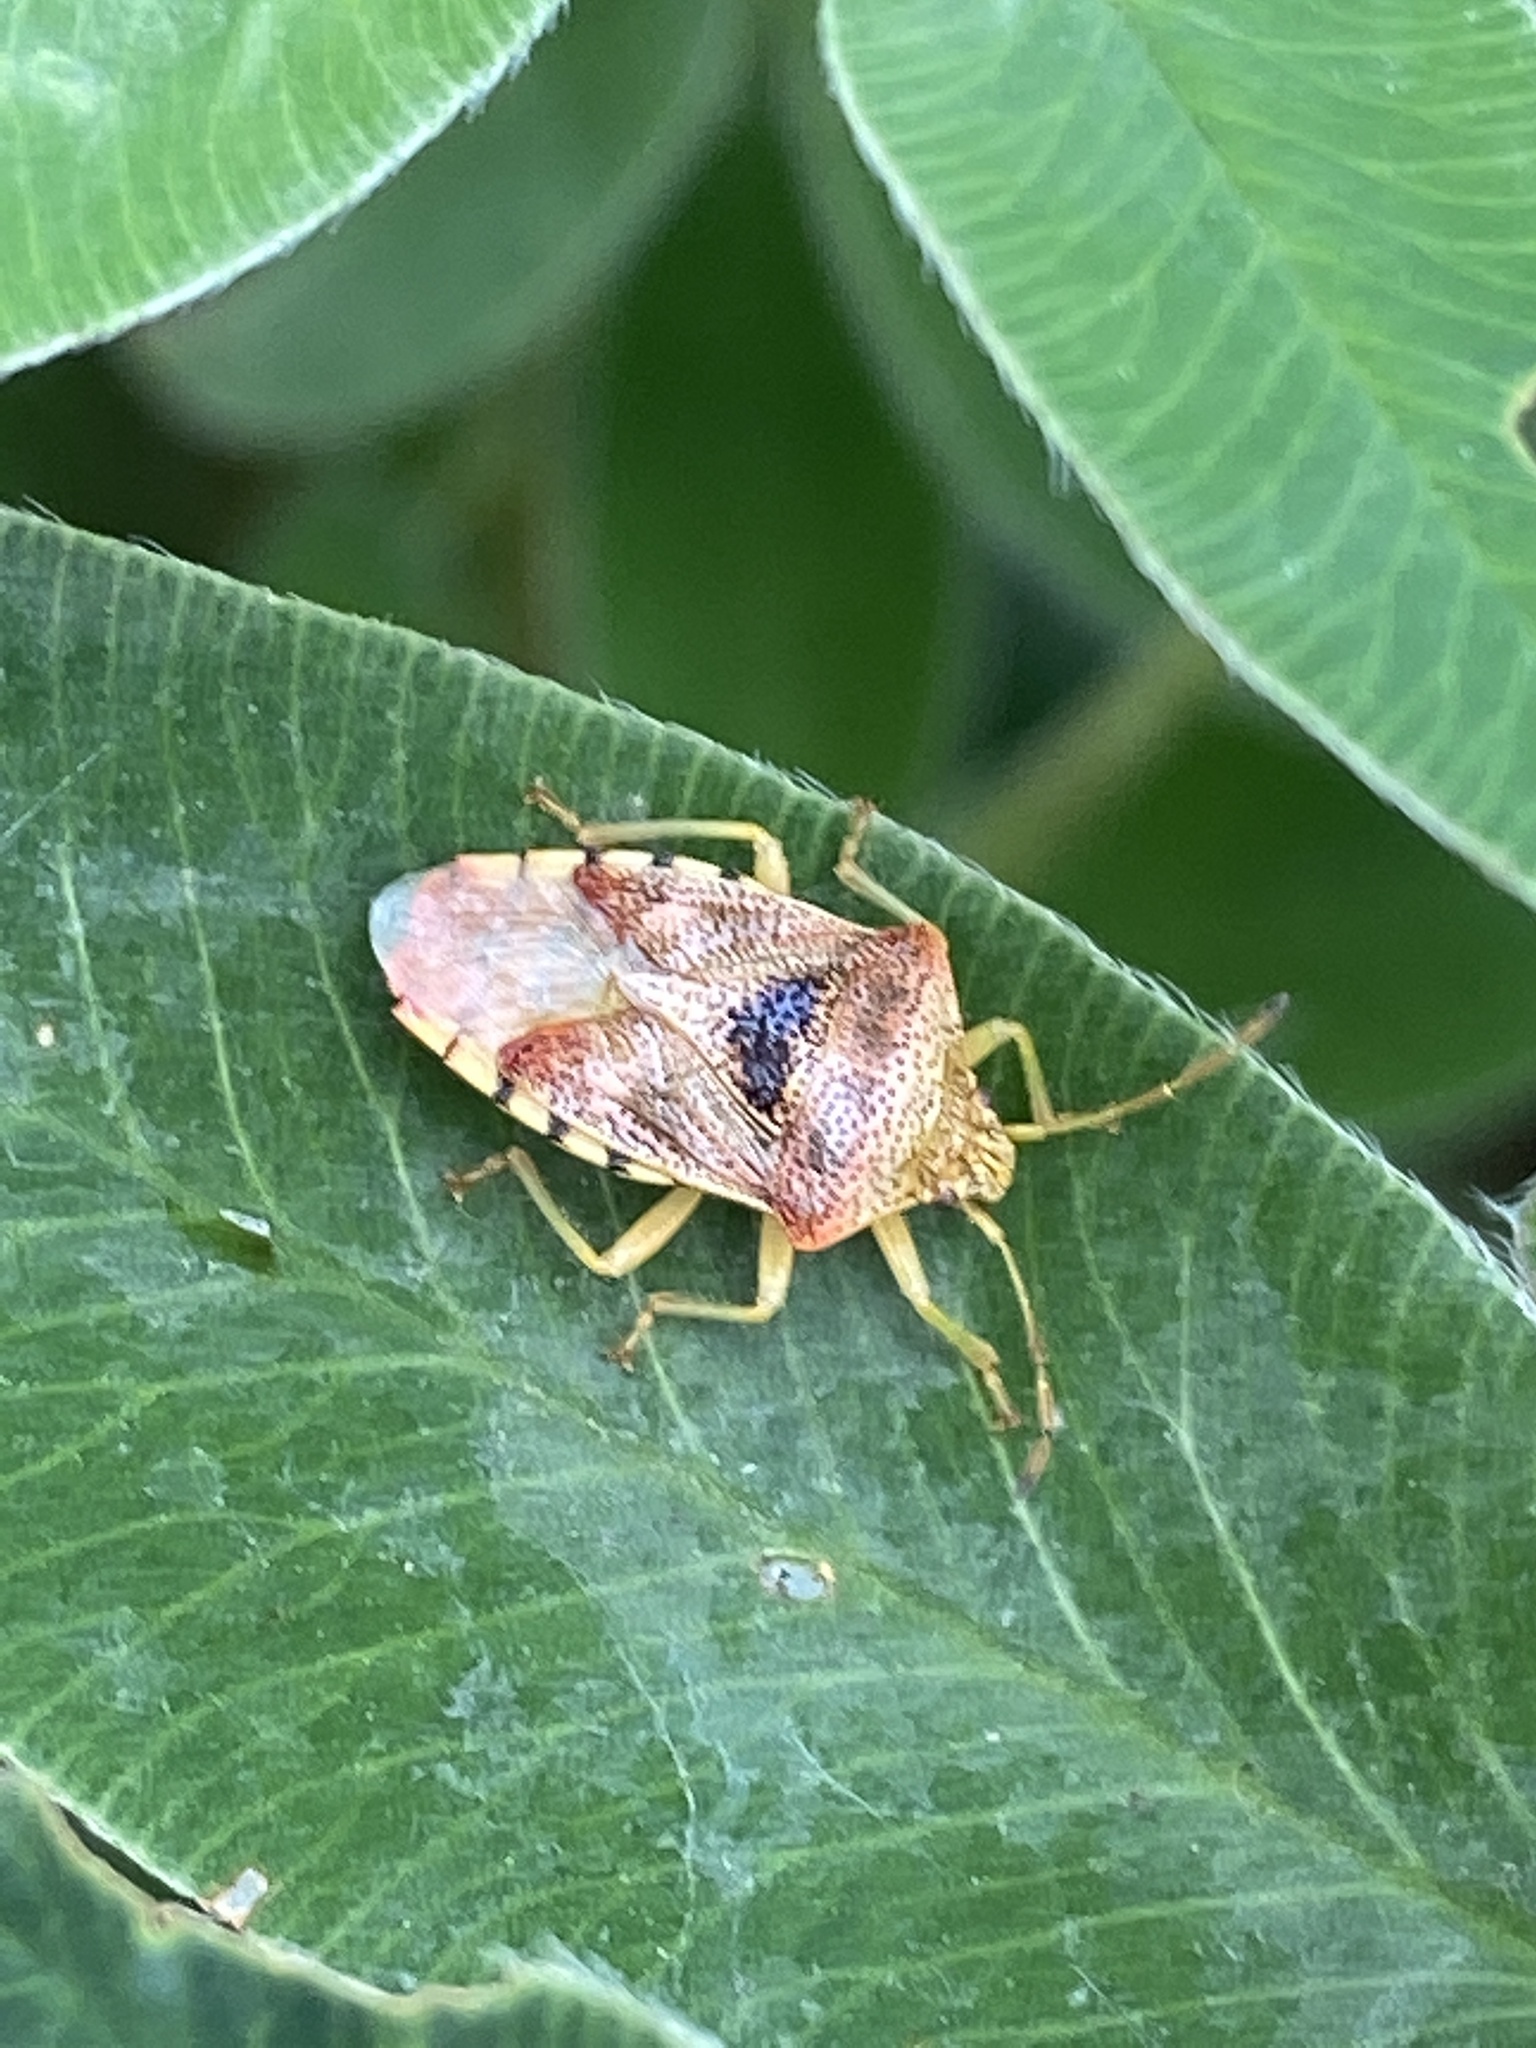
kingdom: Animalia
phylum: Arthropoda
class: Insecta
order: Hemiptera
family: Acanthosomatidae
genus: Elasmucha
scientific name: Elasmucha grisea
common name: Parent bug
